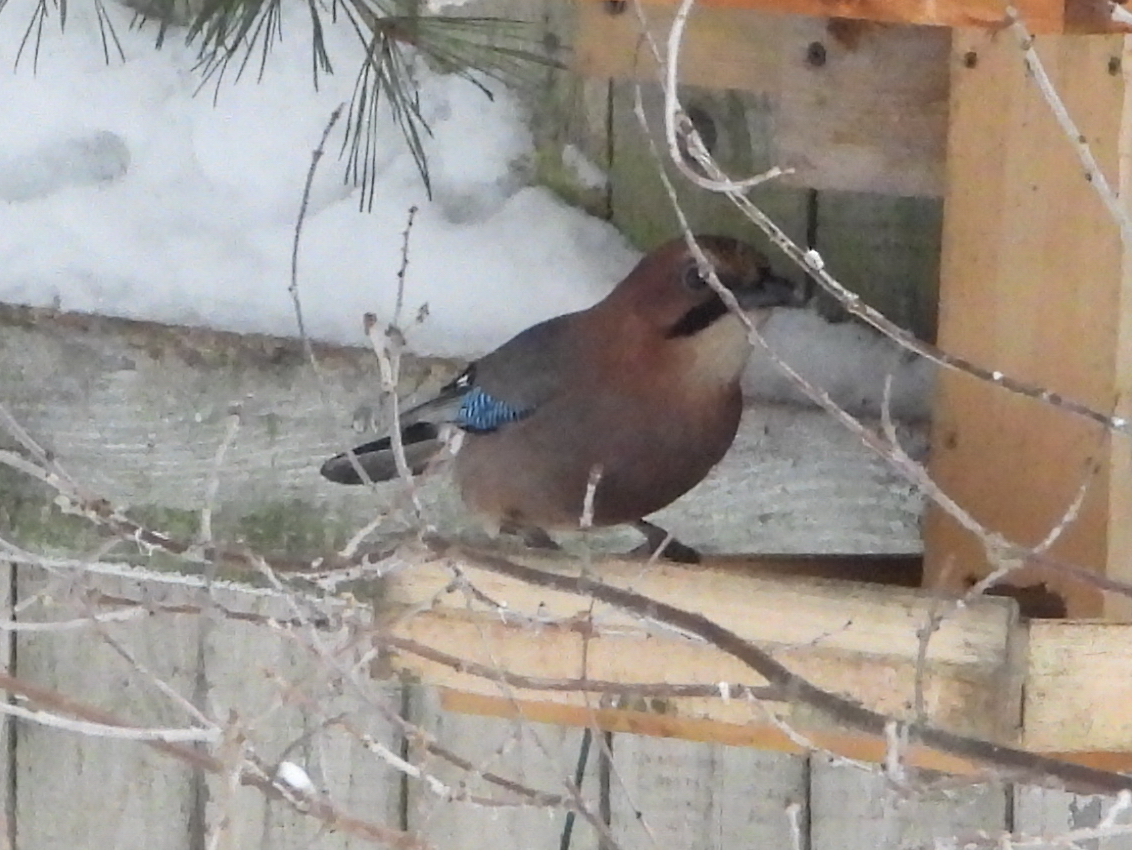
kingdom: Animalia
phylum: Chordata
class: Aves
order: Passeriformes
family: Corvidae
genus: Garrulus
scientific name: Garrulus glandarius
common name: Eurasian jay
